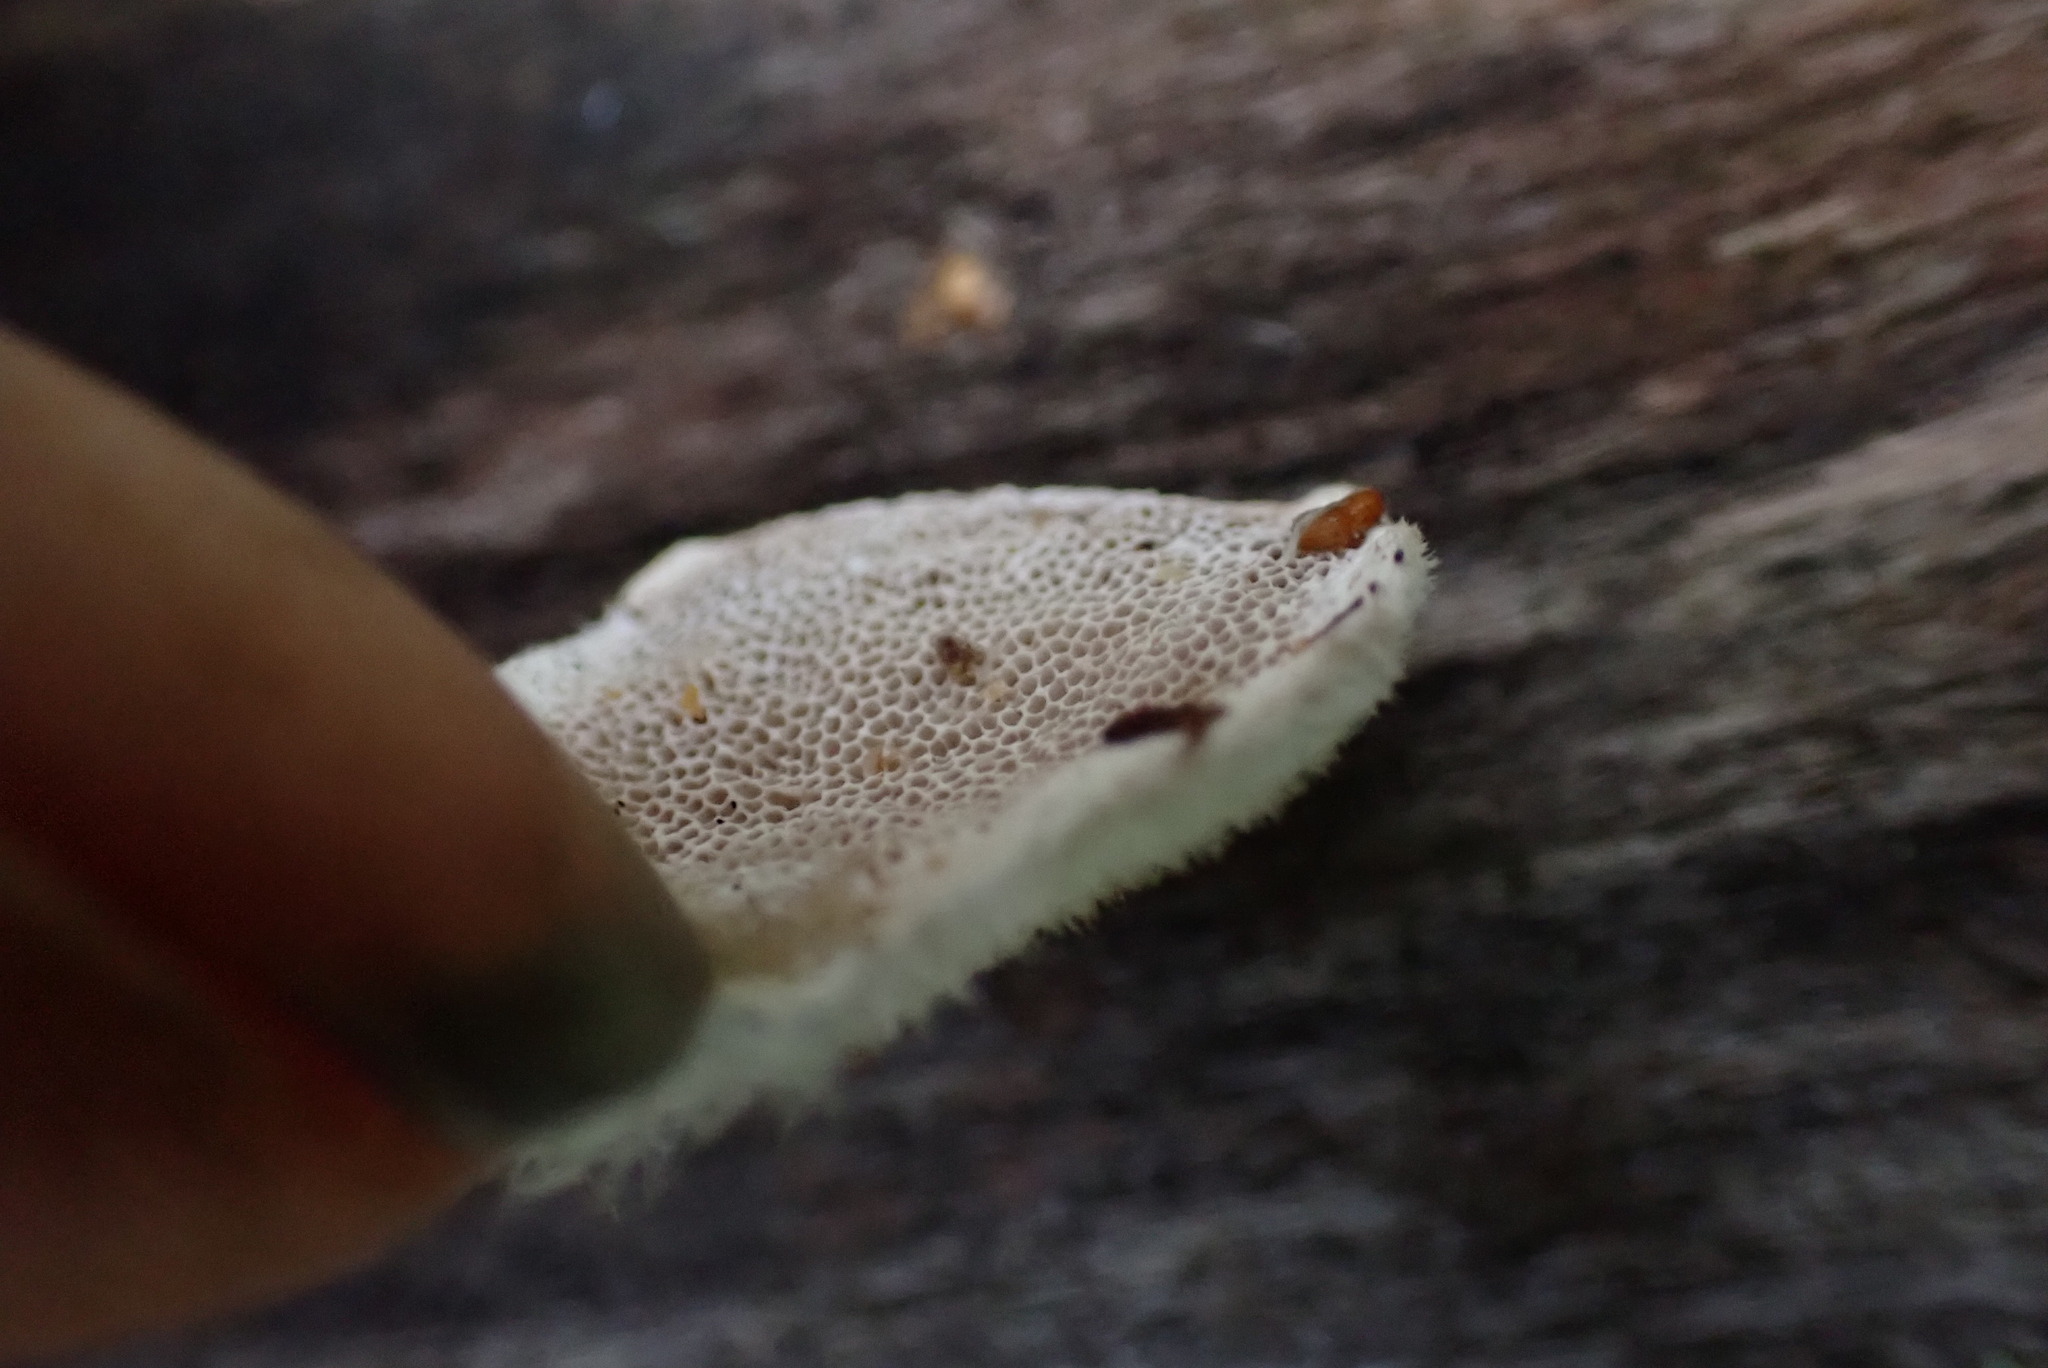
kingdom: Fungi
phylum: Basidiomycota
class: Agaricomycetes
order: Polyporales
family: Polyporaceae
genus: Trametes
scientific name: Trametes hirsuta
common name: Hairy bracket
